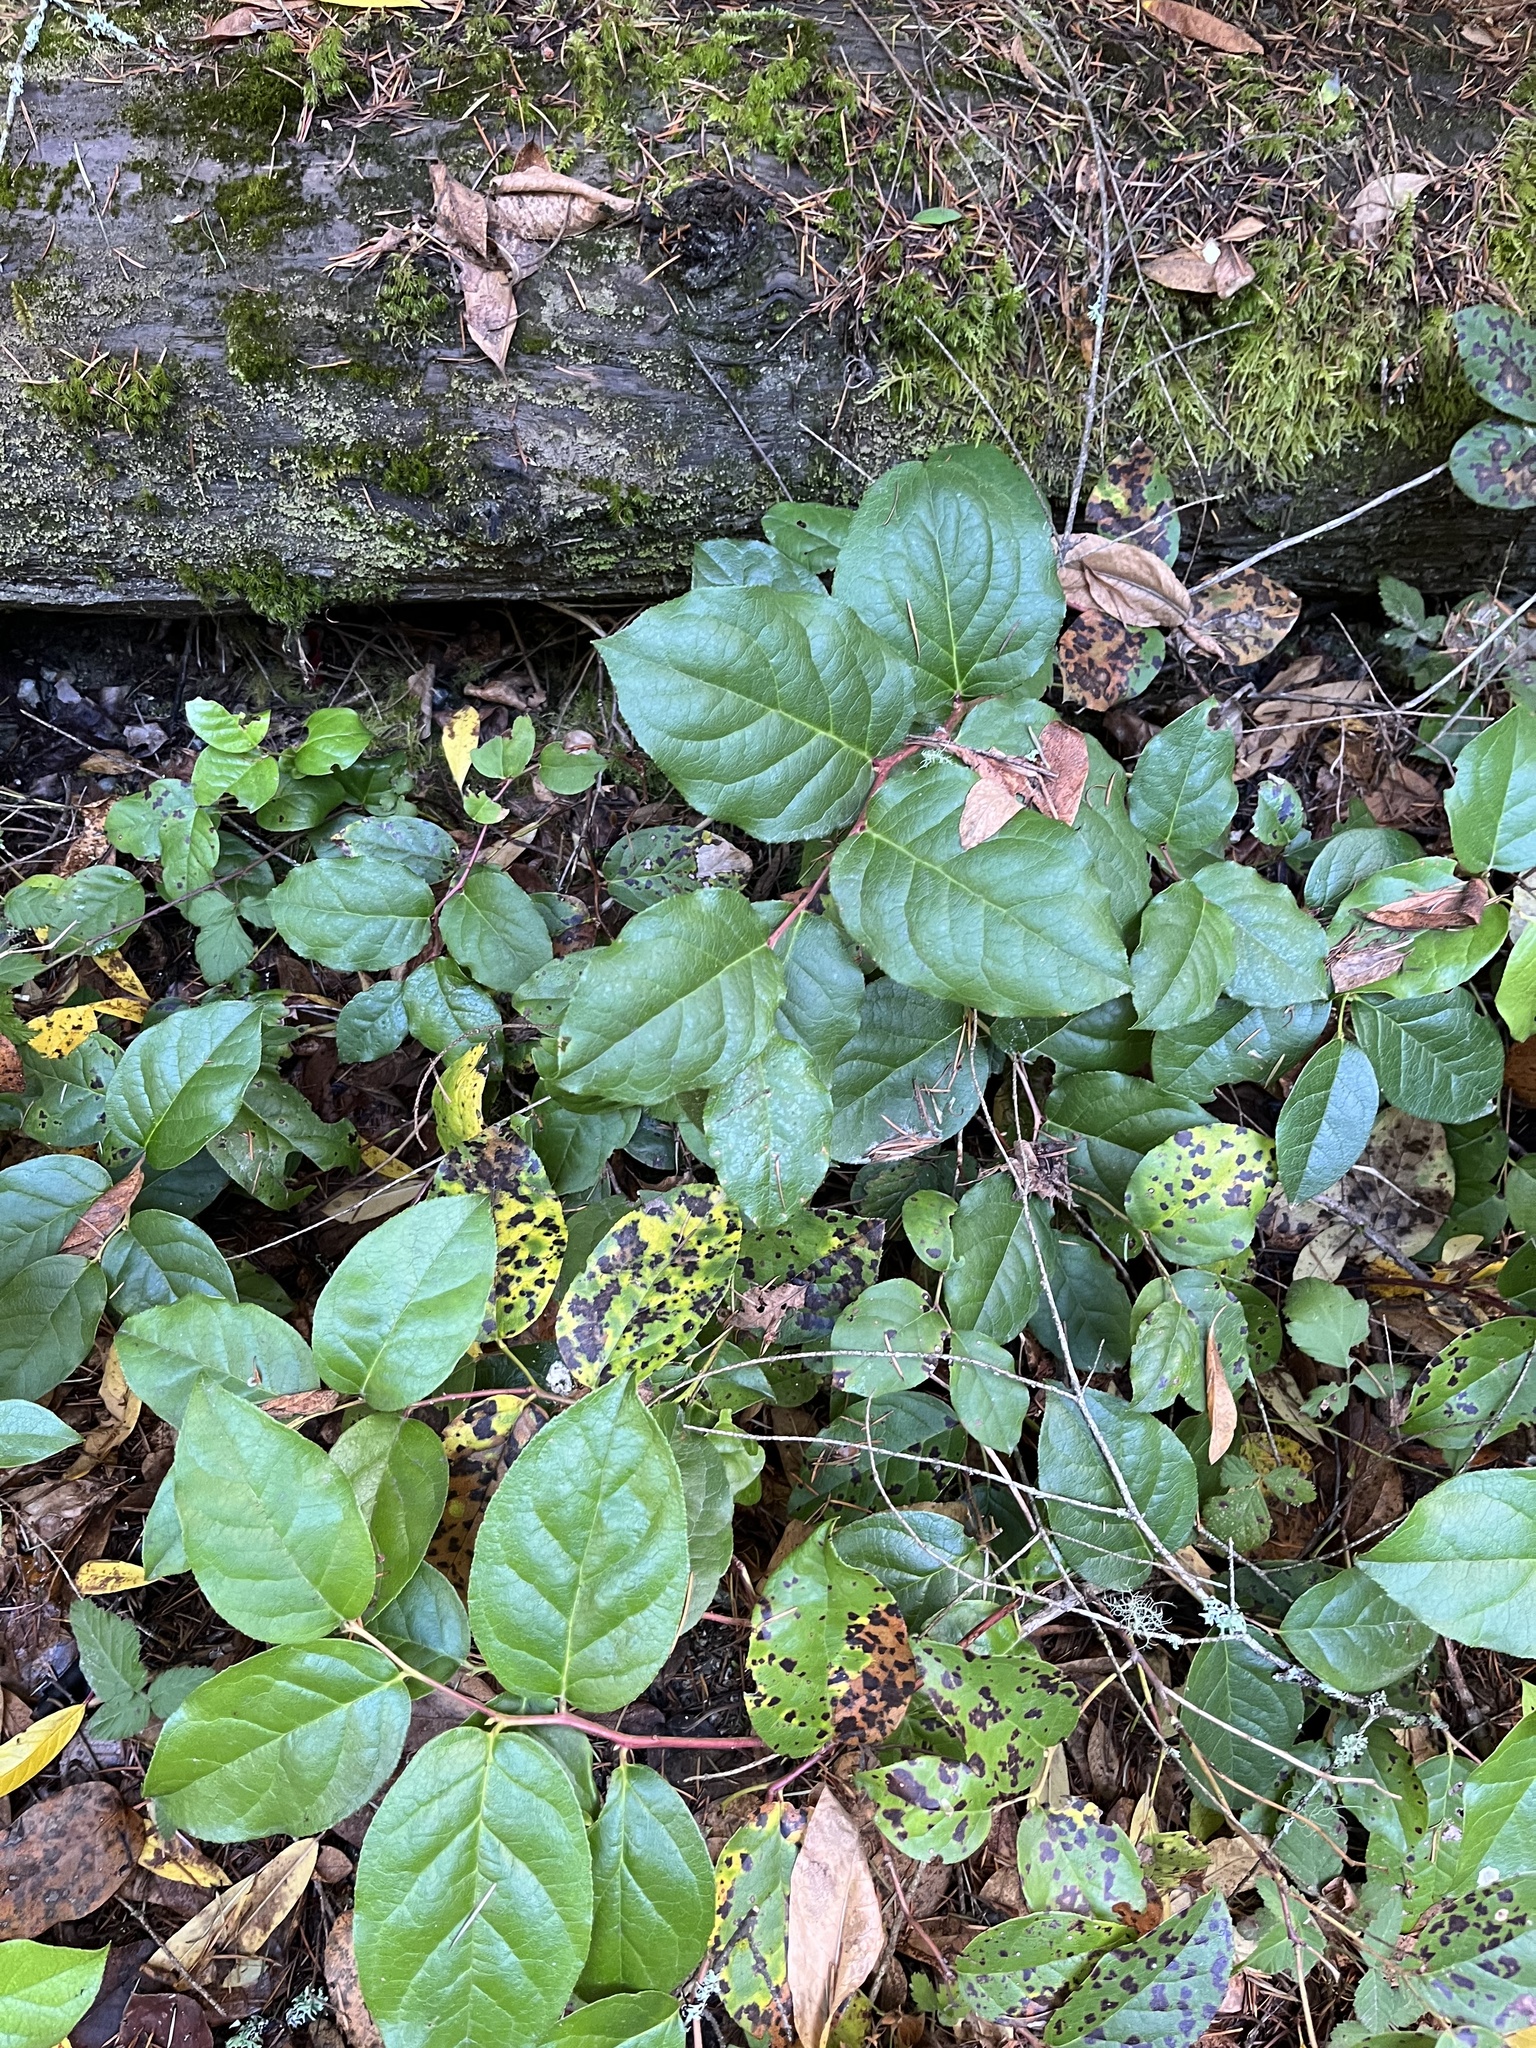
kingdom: Plantae
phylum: Tracheophyta
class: Magnoliopsida
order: Ericales
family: Ericaceae
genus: Gaultheria
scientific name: Gaultheria shallon
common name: Shallon
